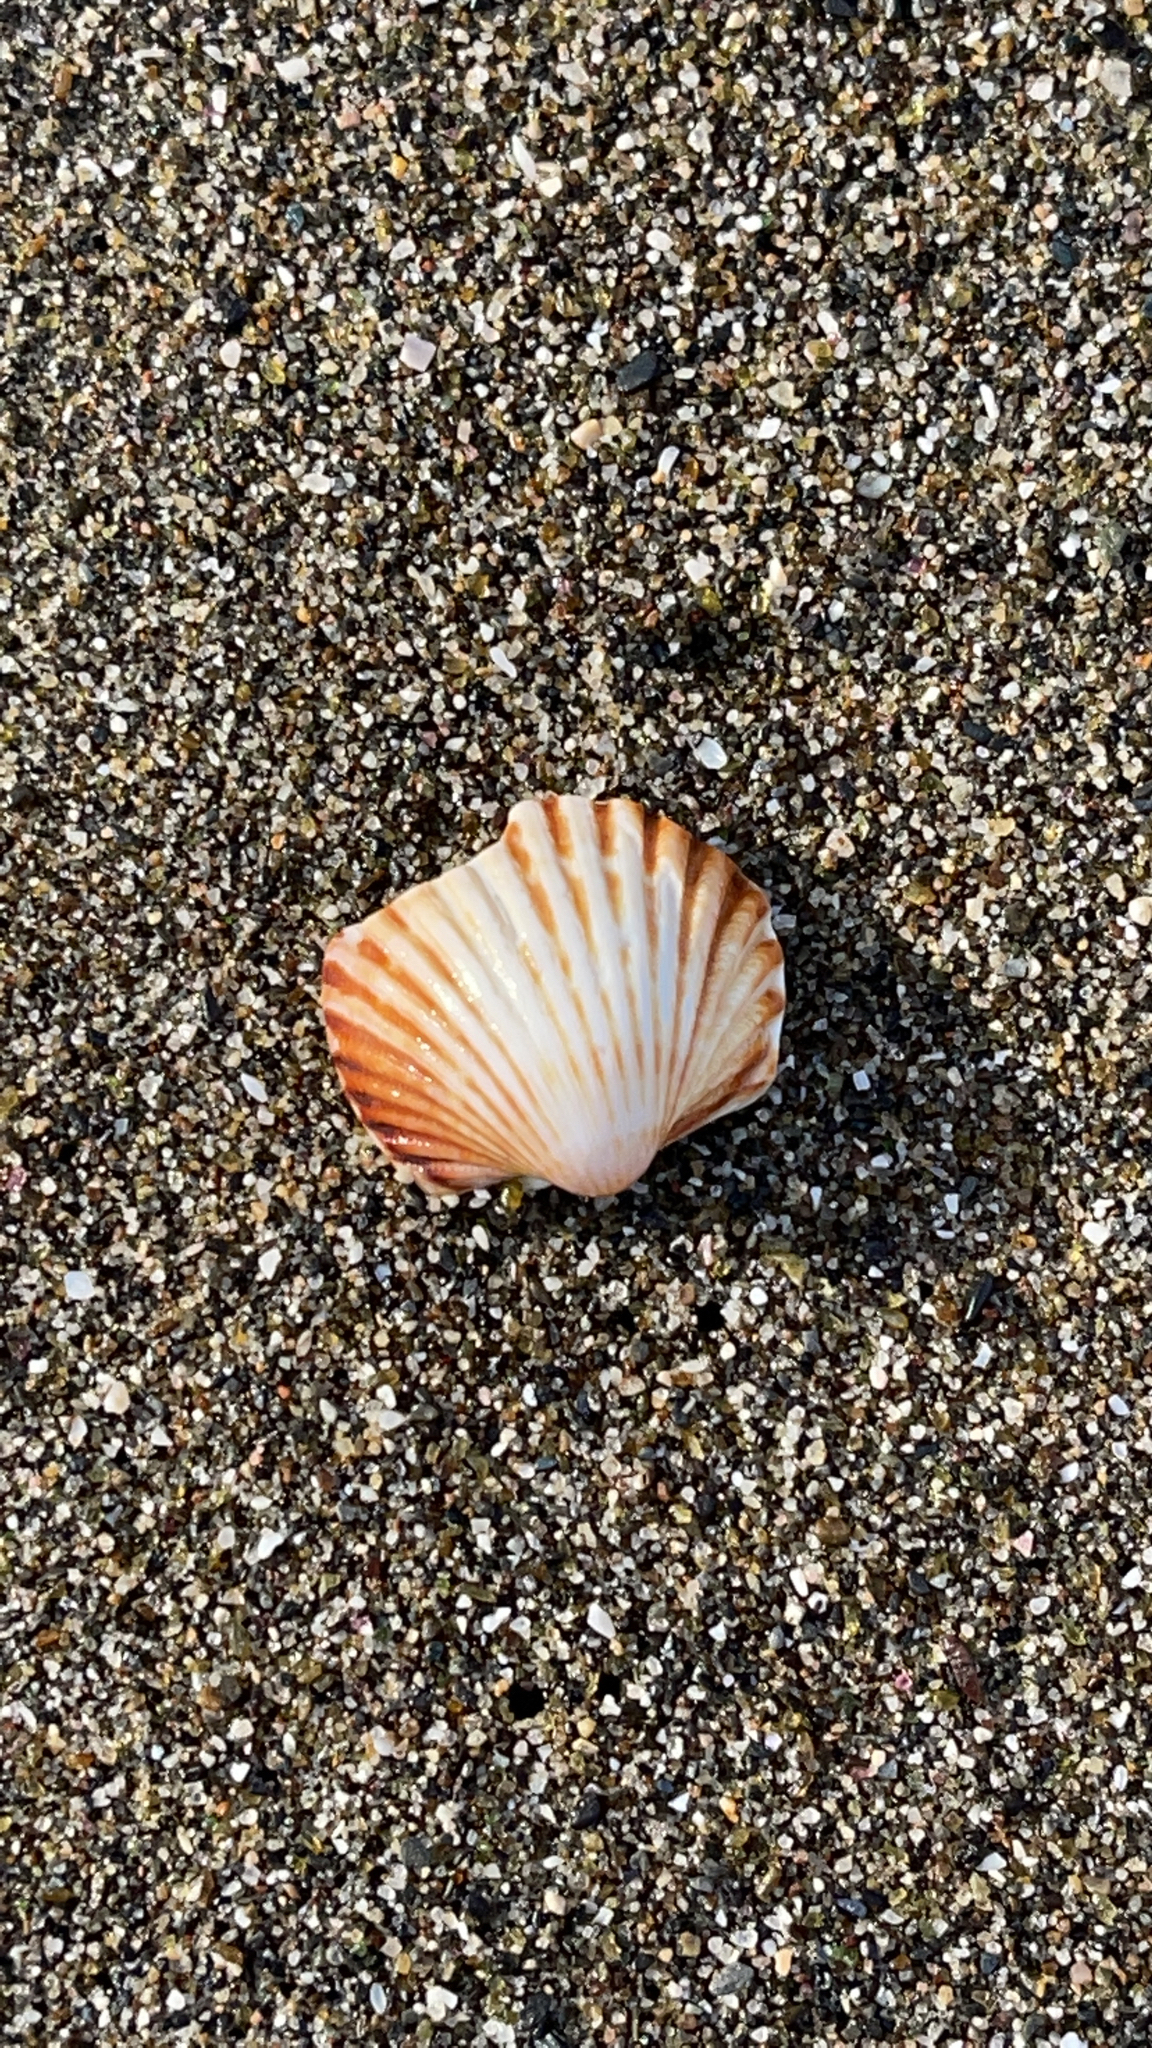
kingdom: Animalia
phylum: Mollusca
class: Bivalvia
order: Cardiida
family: Cardiidae
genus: Acanthocardia
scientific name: Acanthocardia tuberculata
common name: Rough cockle
